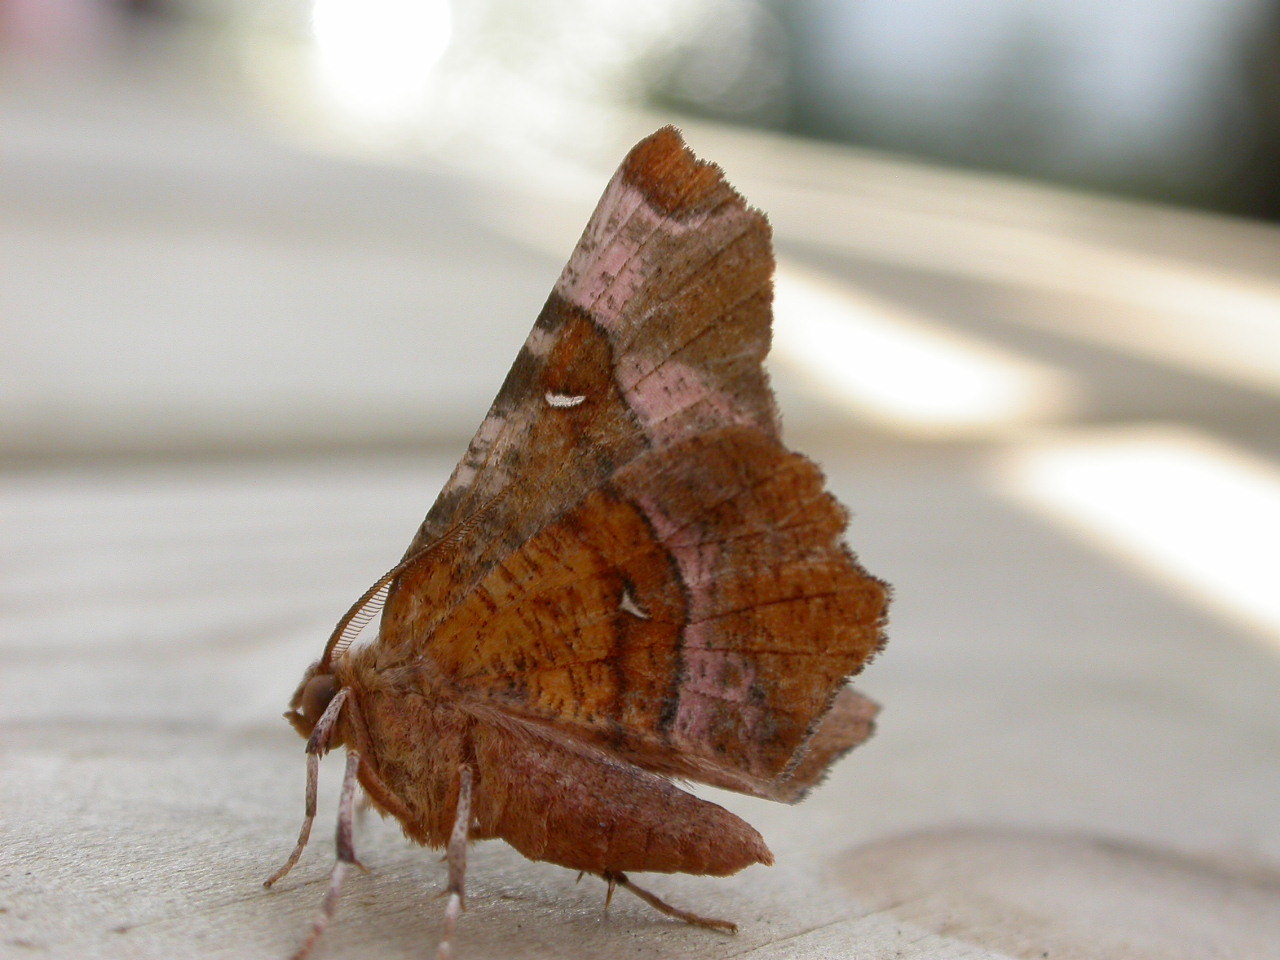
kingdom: Animalia
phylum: Arthropoda
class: Insecta
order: Lepidoptera
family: Geometridae
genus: Selenia
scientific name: Selenia tetralunaria
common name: Purple thorn
